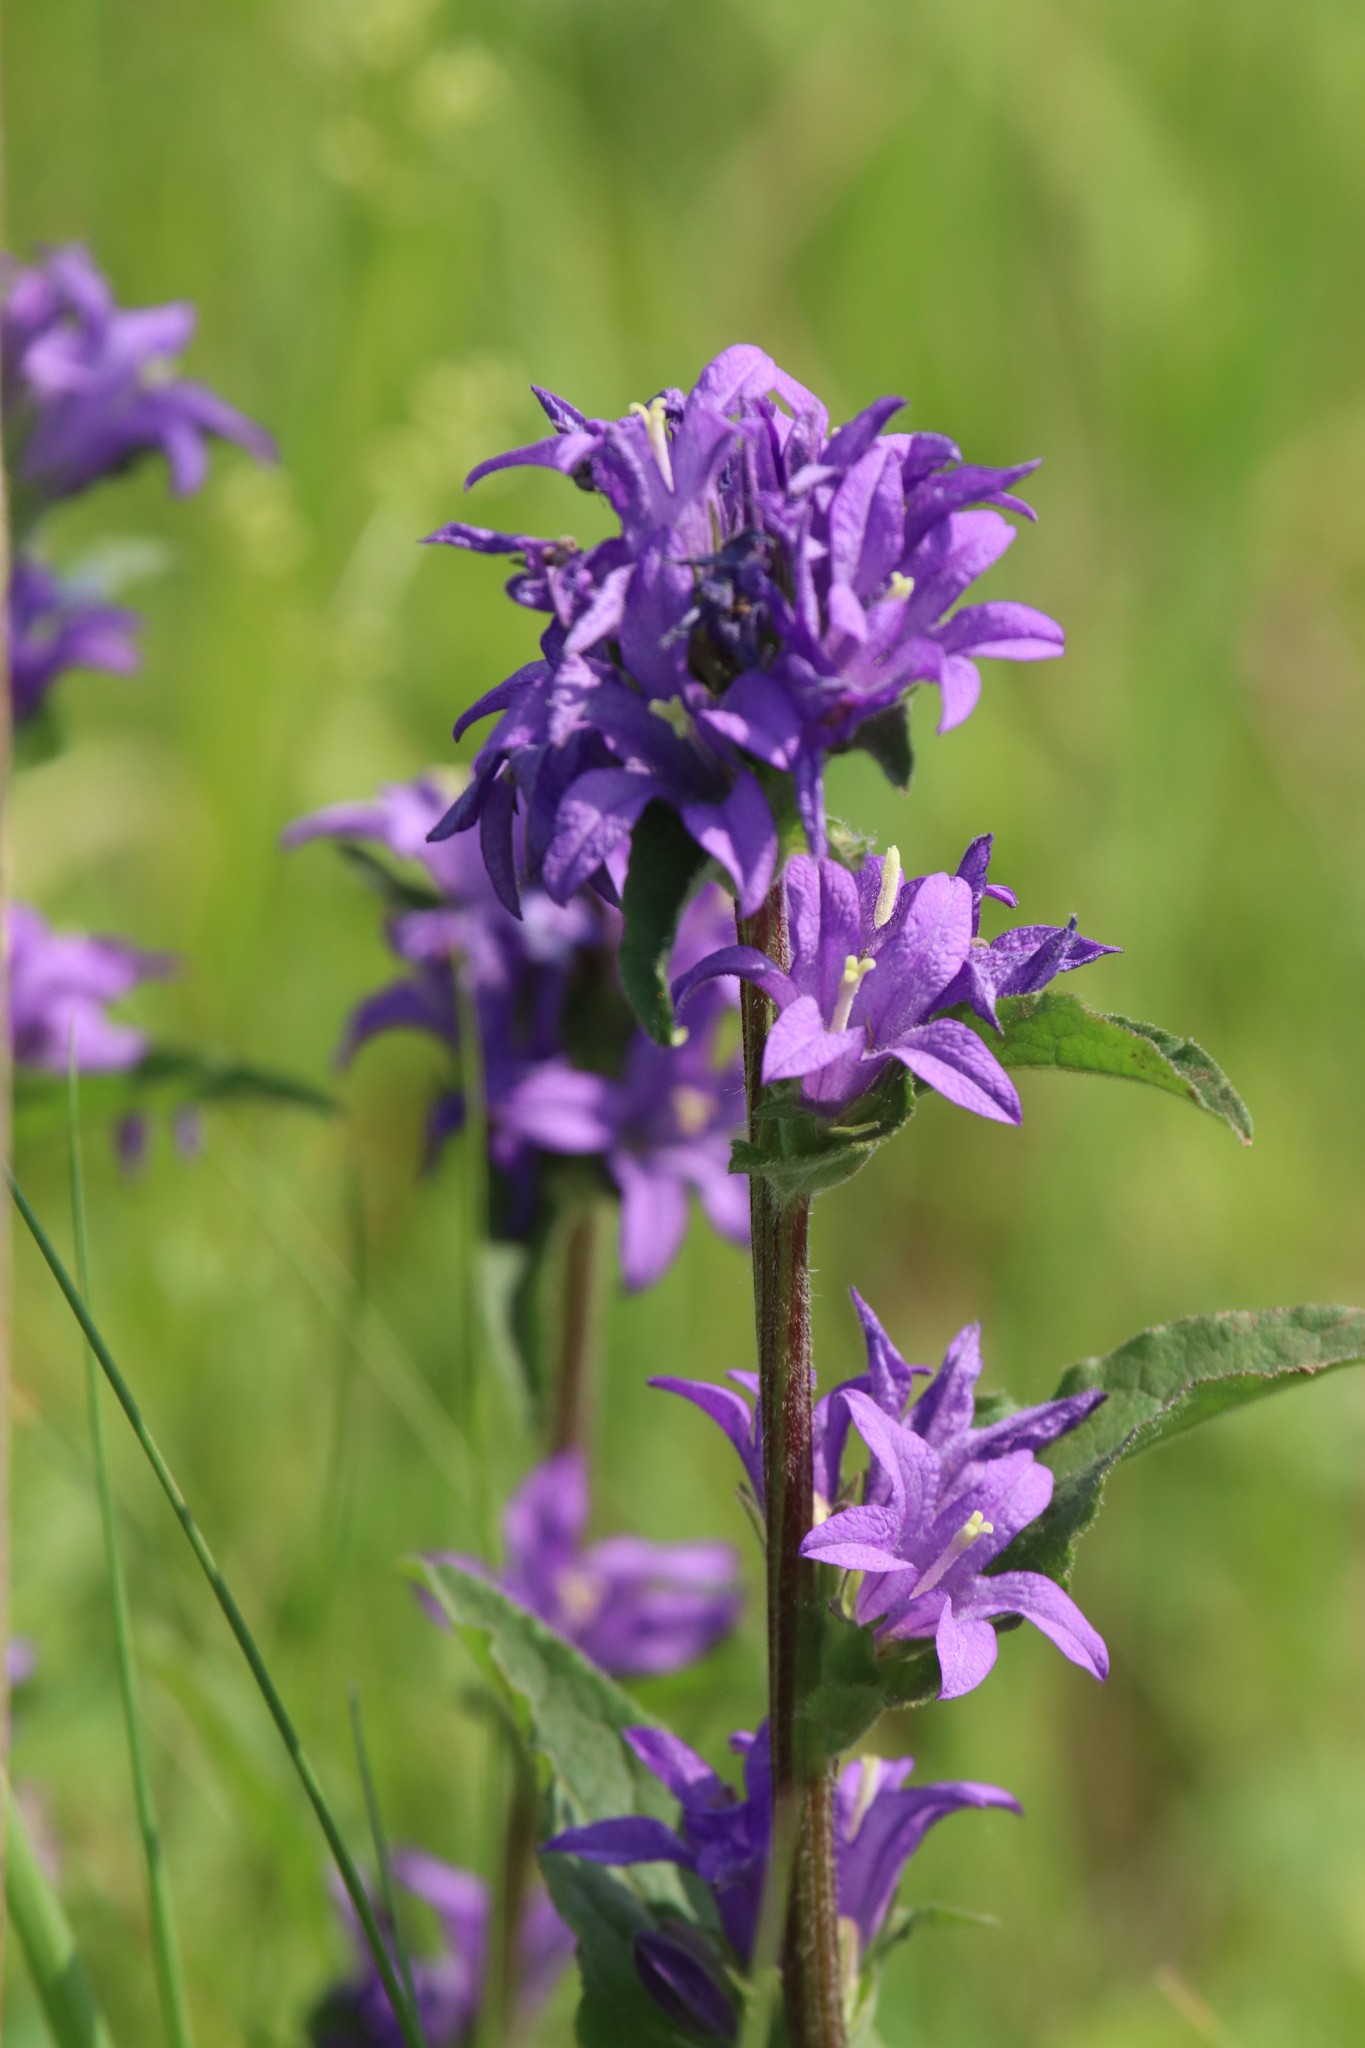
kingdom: Plantae
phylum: Tracheophyta
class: Magnoliopsida
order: Asterales
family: Campanulaceae
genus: Campanula
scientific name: Campanula glomerata
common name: Clustered bellflower
